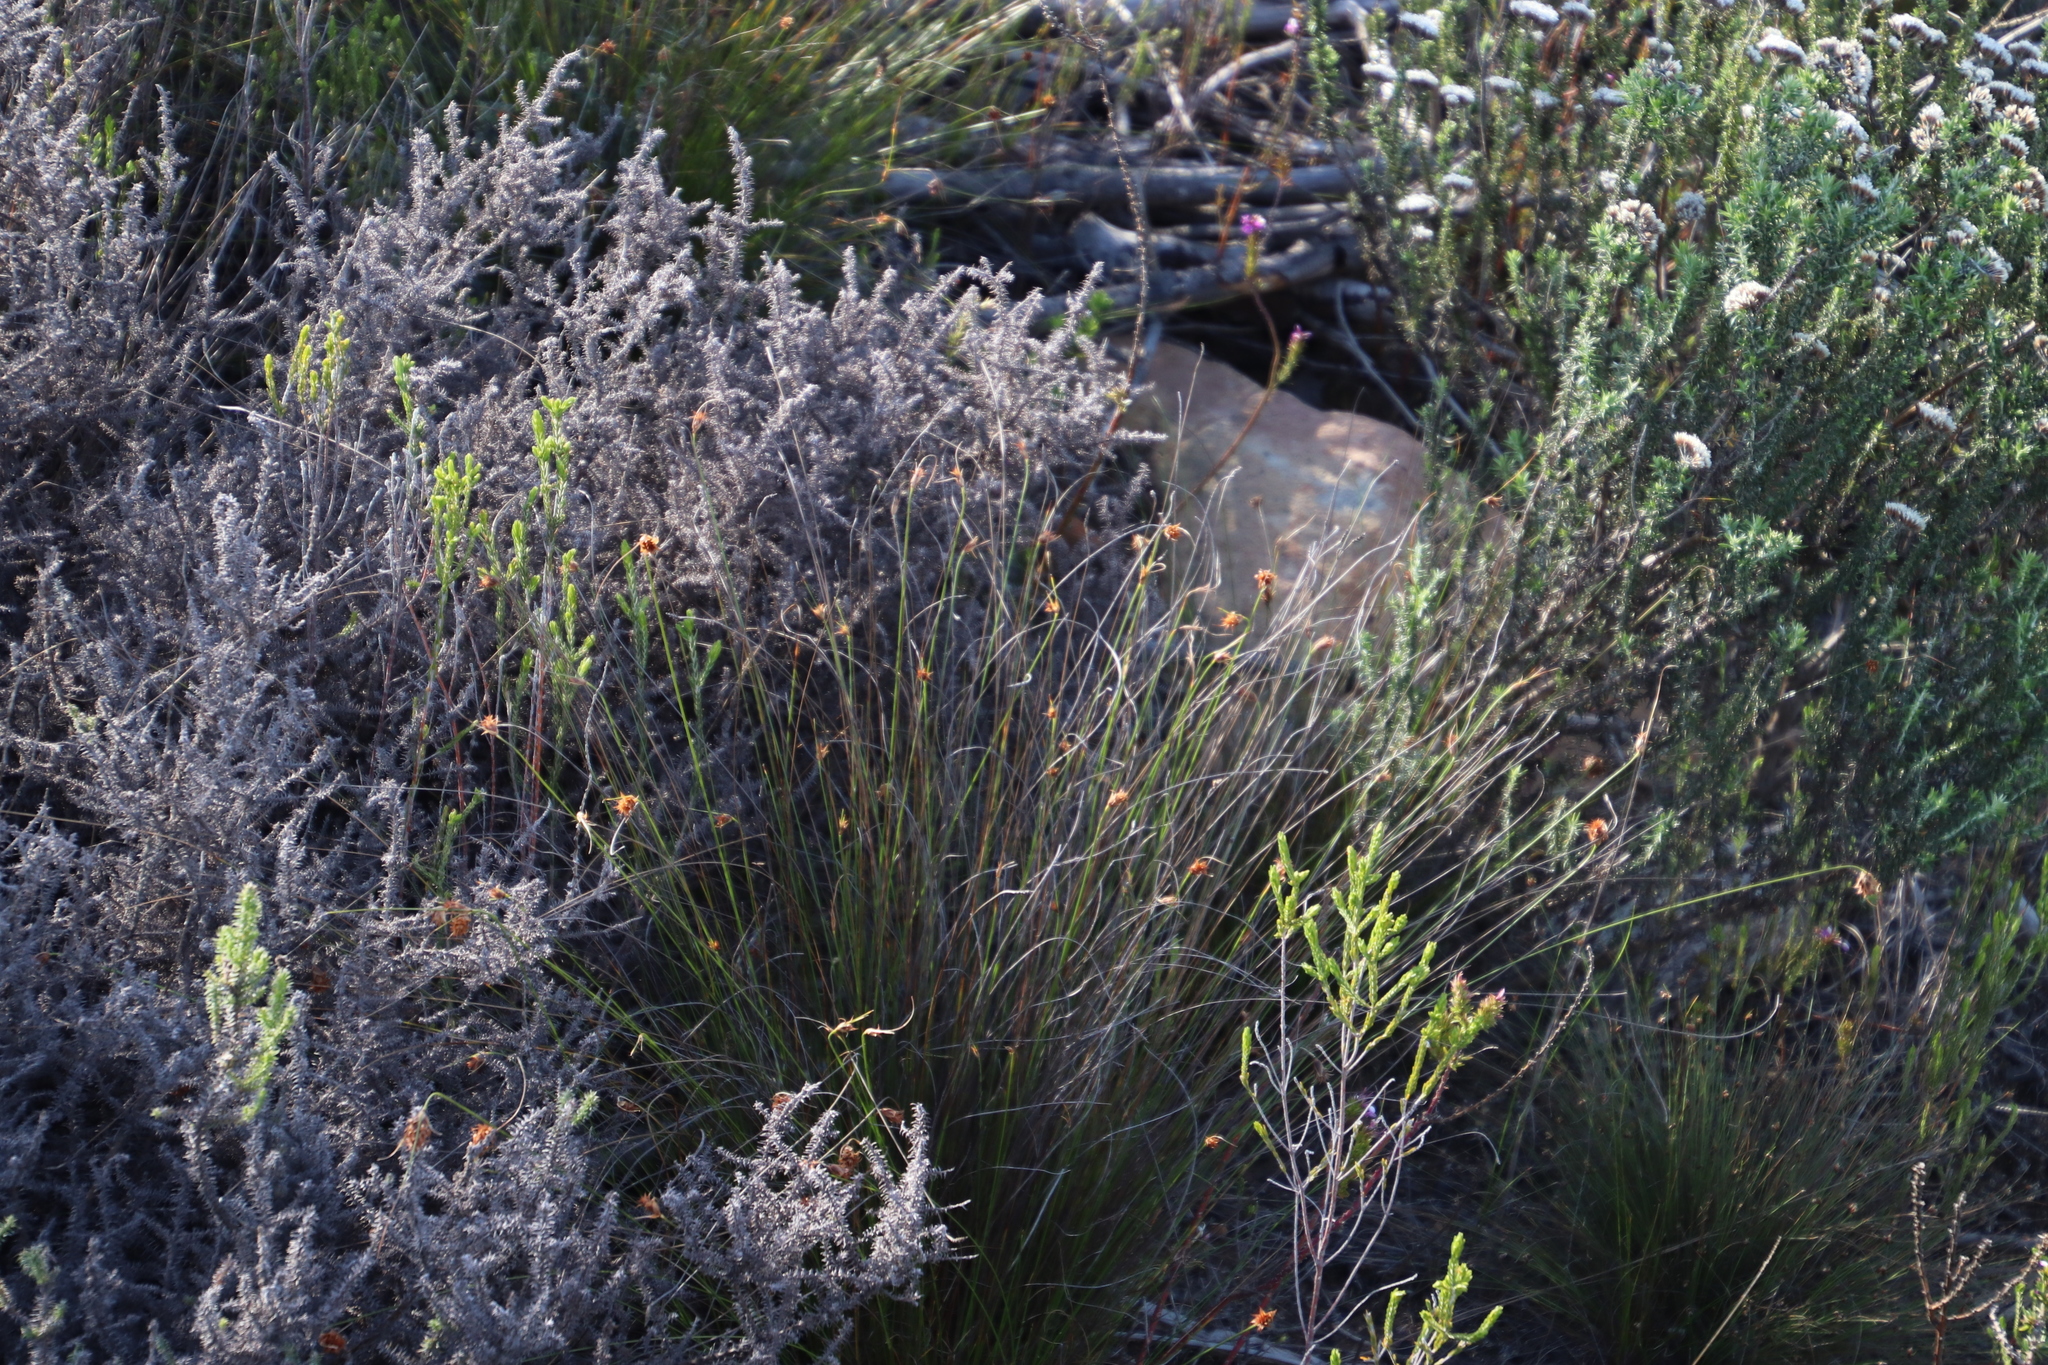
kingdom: Plantae
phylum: Tracheophyta
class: Liliopsida
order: Poales
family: Cyperaceae
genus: Ficinia
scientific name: Ficinia nigrescens
